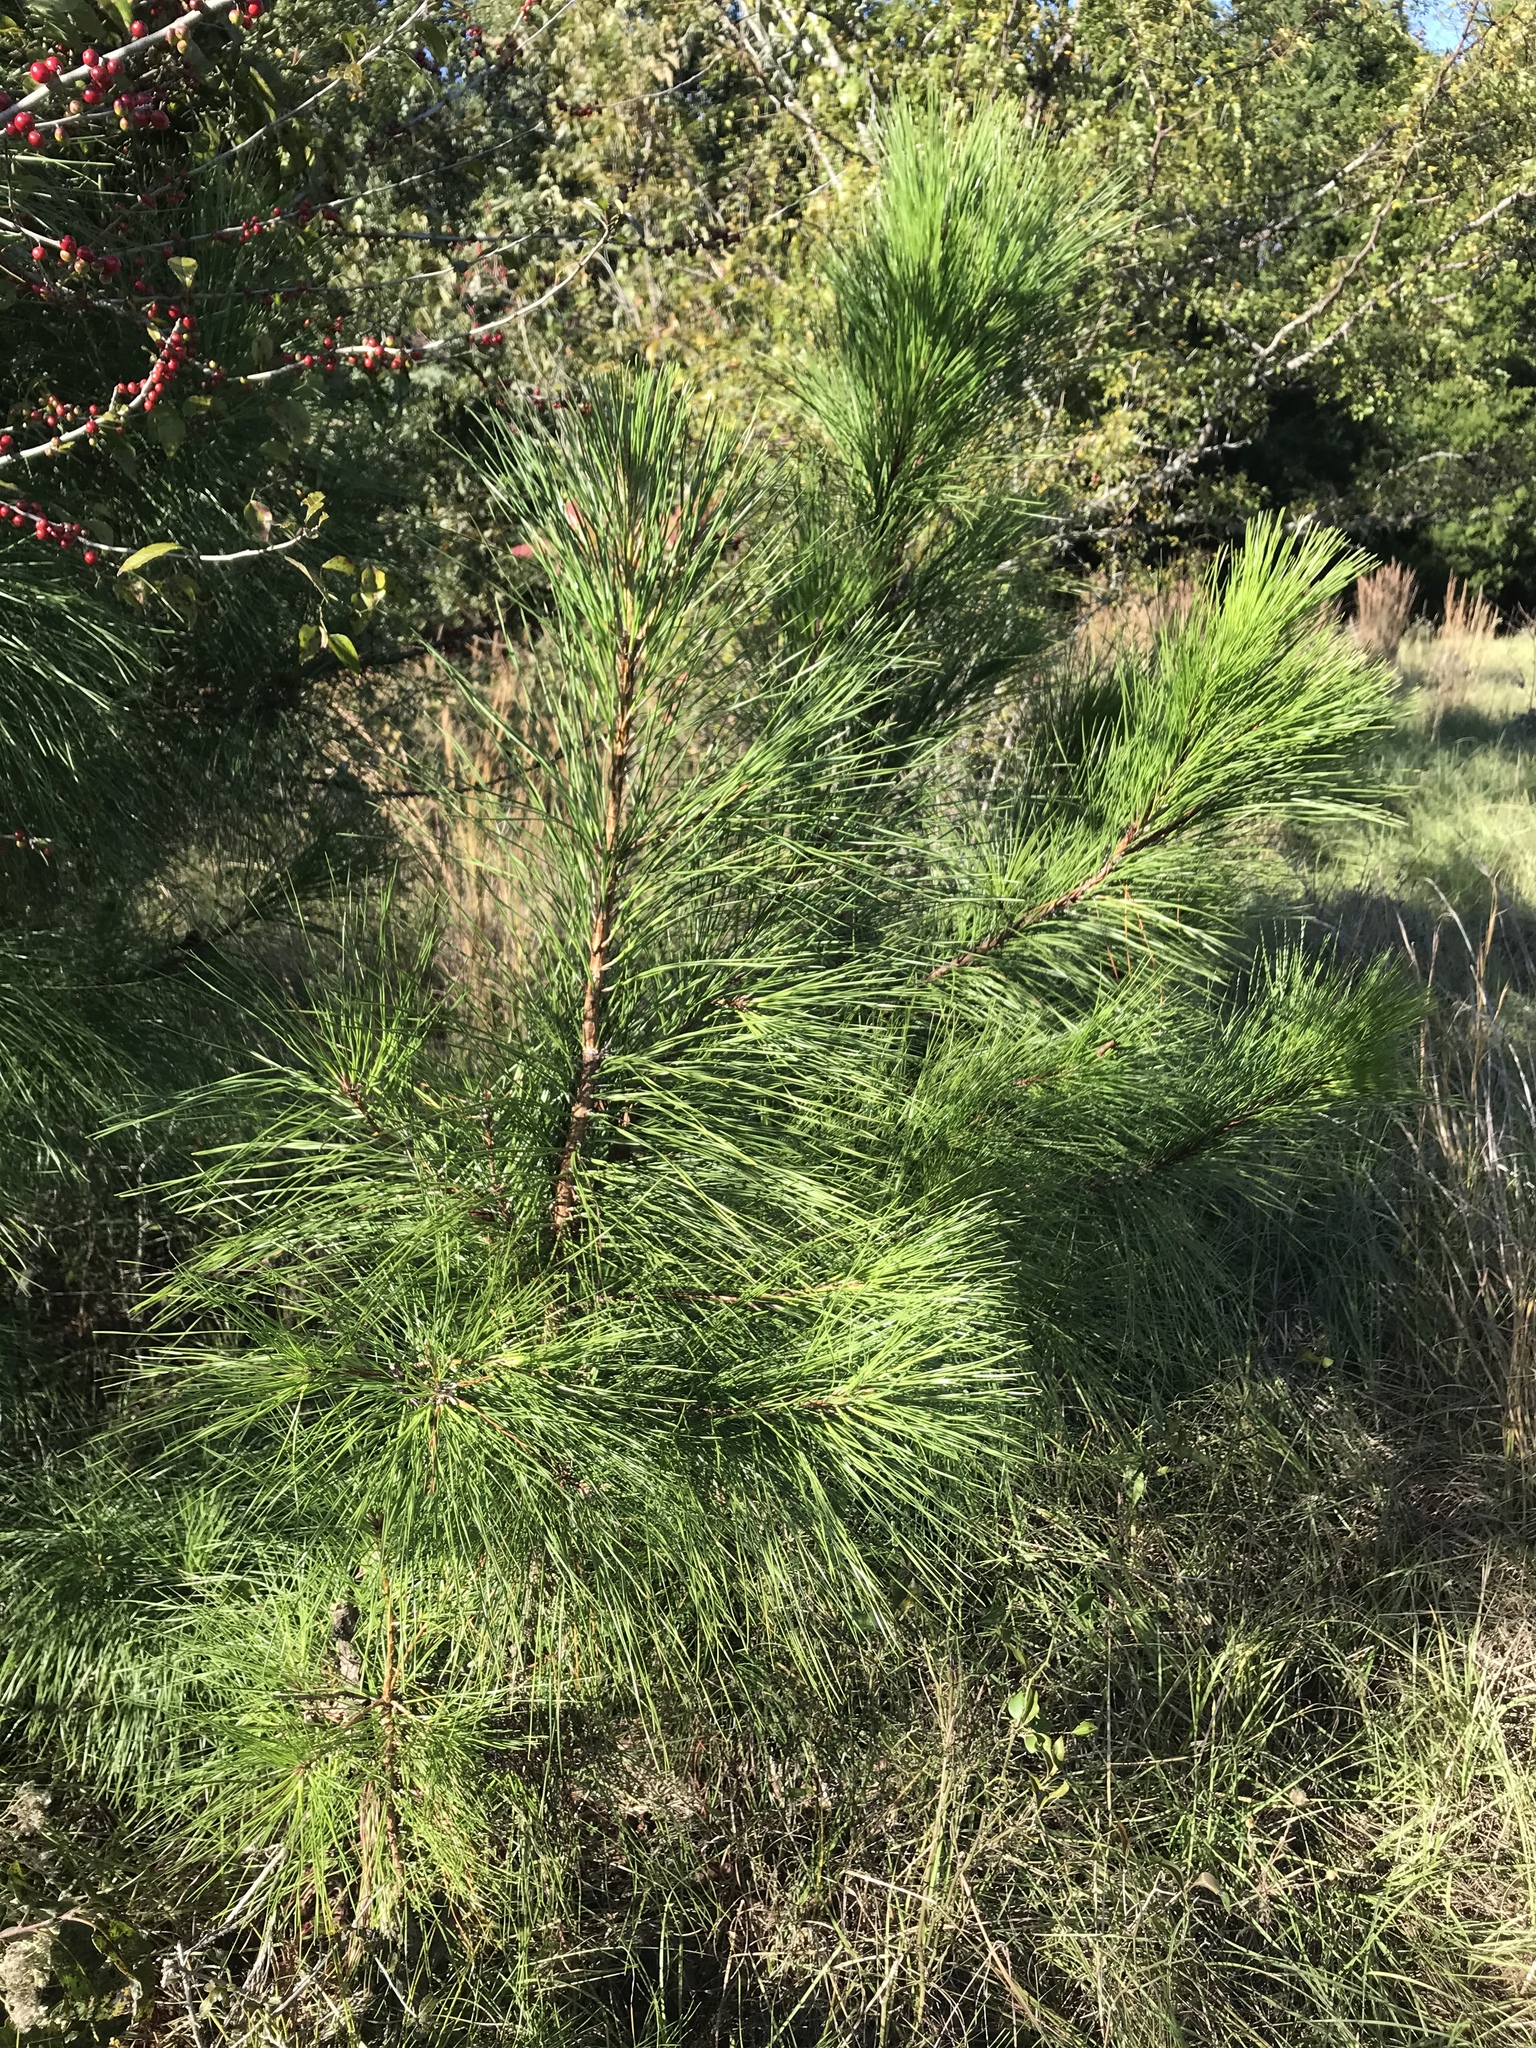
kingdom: Plantae
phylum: Tracheophyta
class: Pinopsida
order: Pinales
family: Pinaceae
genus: Pinus
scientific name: Pinus taeda
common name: Loblolly pine
